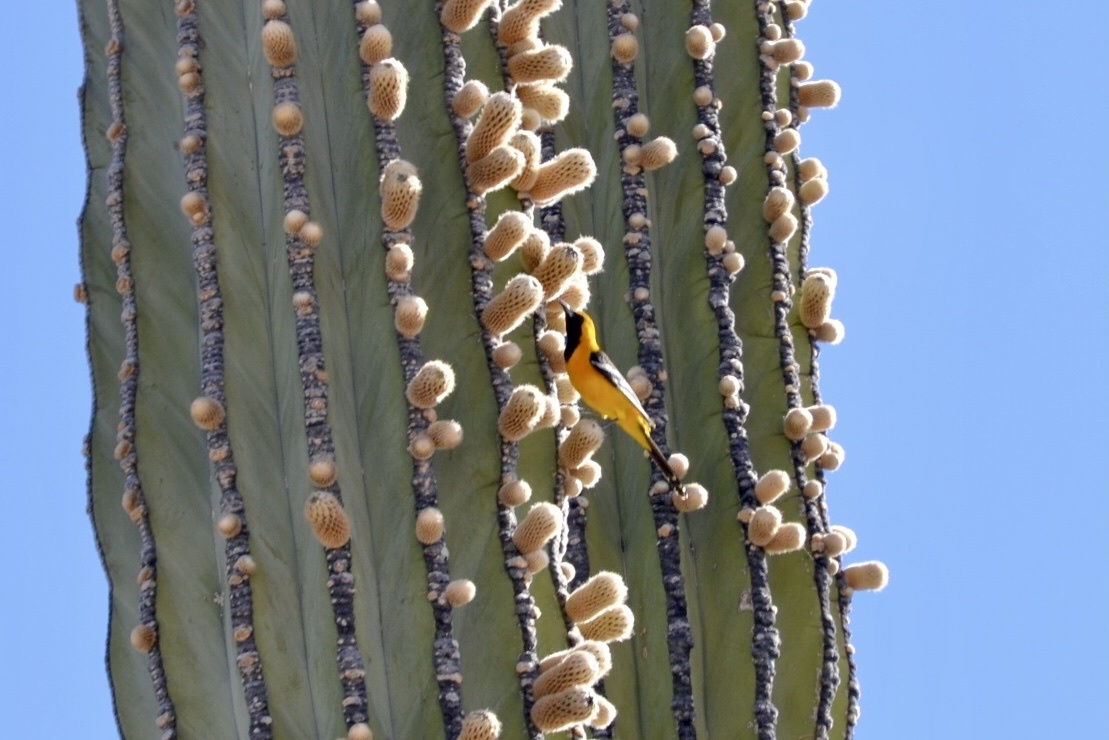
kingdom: Animalia
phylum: Chordata
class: Aves
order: Passeriformes
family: Icteridae
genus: Icterus
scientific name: Icterus cucullatus
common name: Hooded oriole
